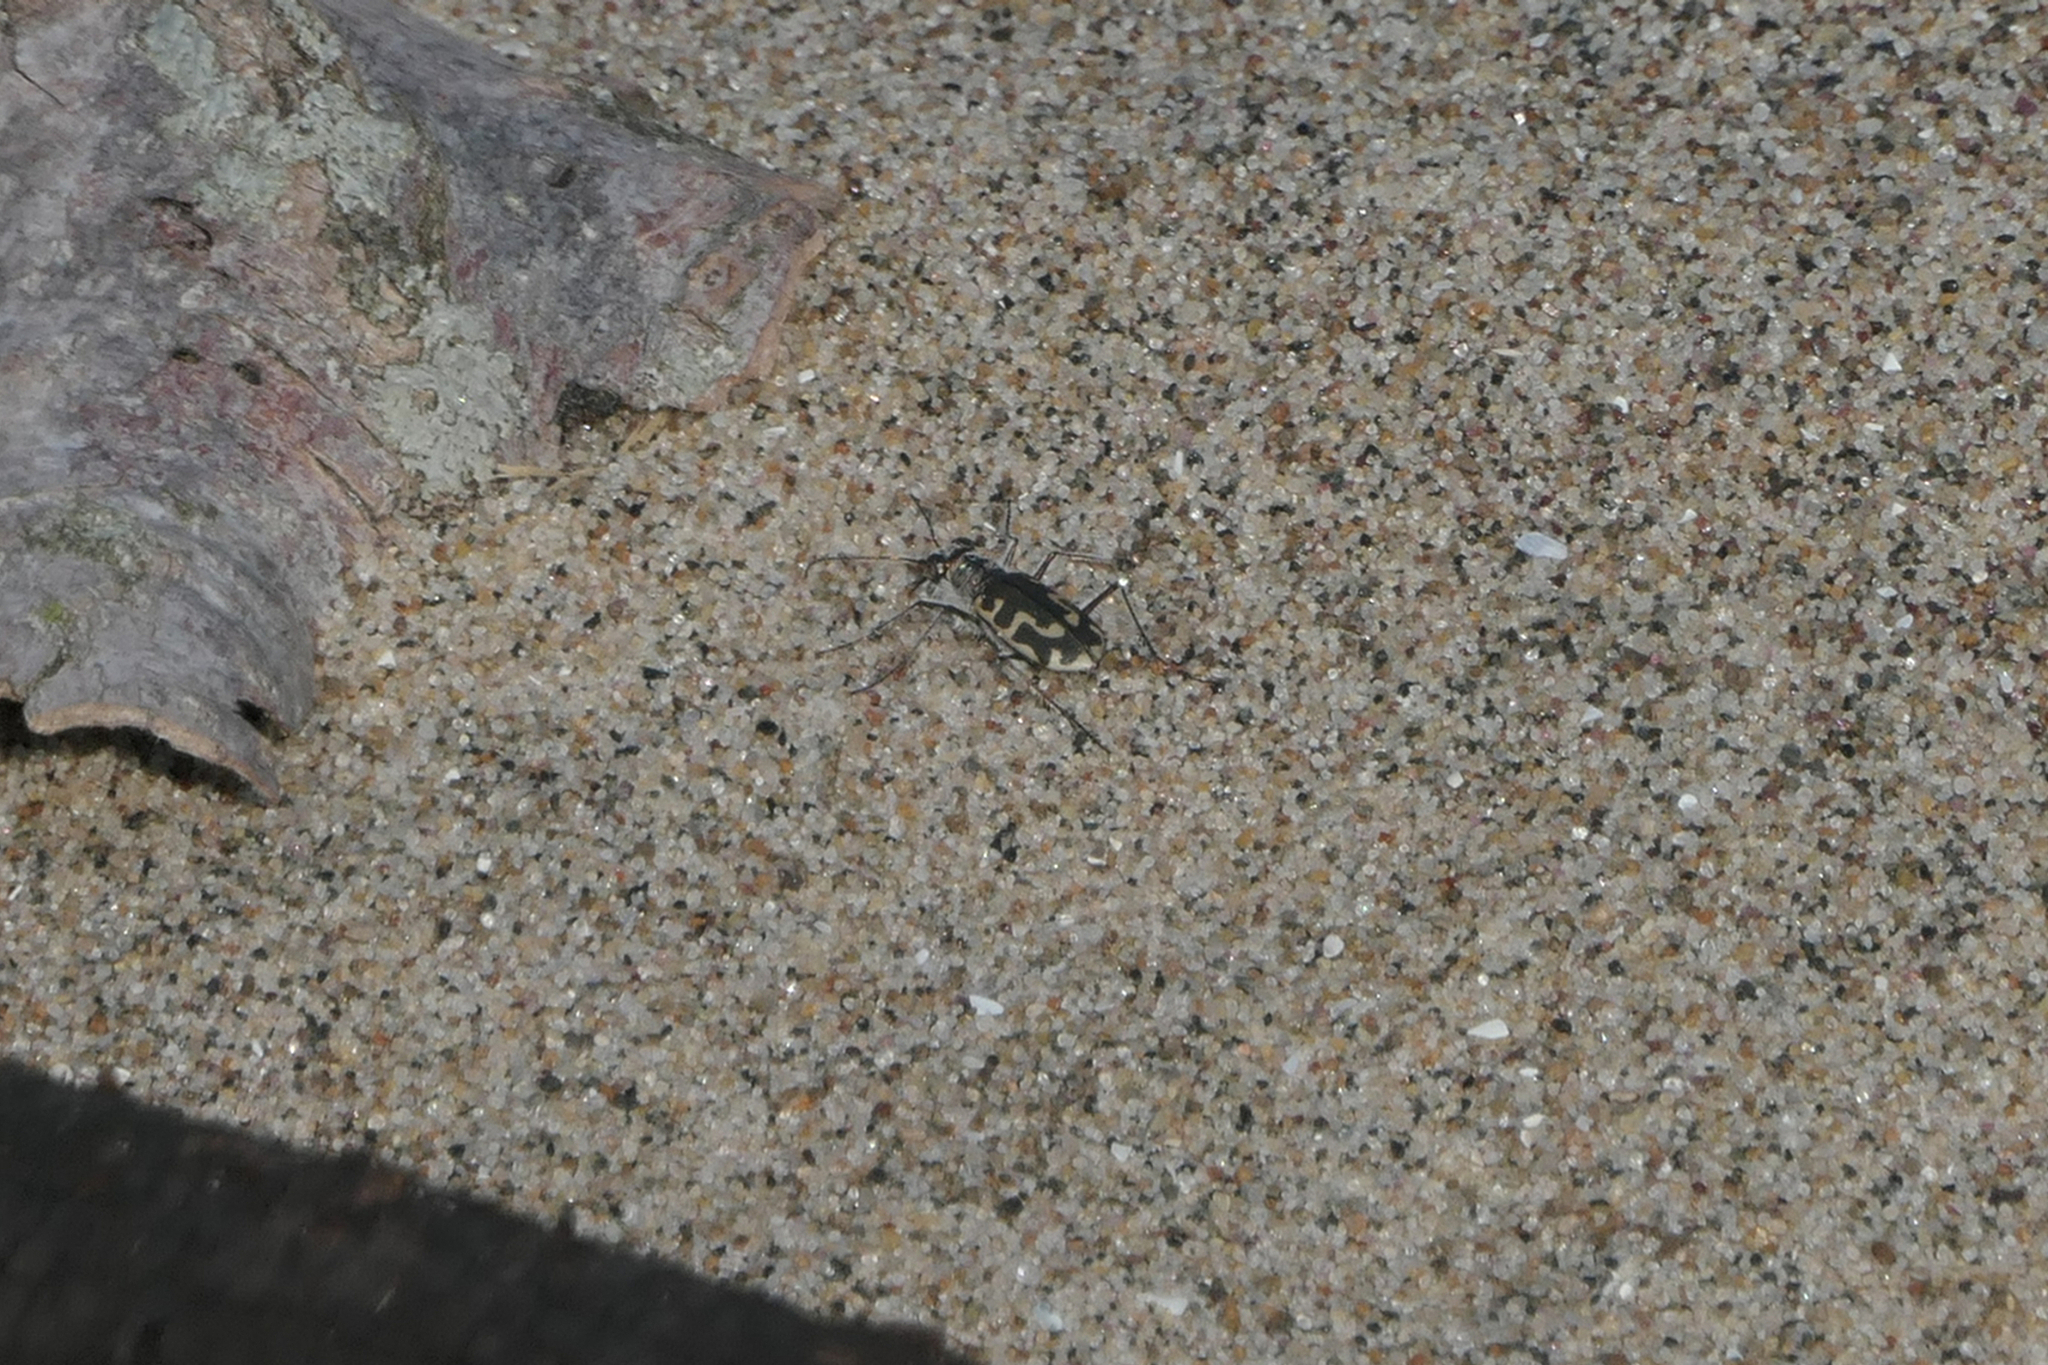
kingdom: Animalia
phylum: Arthropoda
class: Insecta
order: Coleoptera
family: Carabidae
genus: Cicindela
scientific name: Cicindela hirticollis
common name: Hairy-necked tiger beetle
